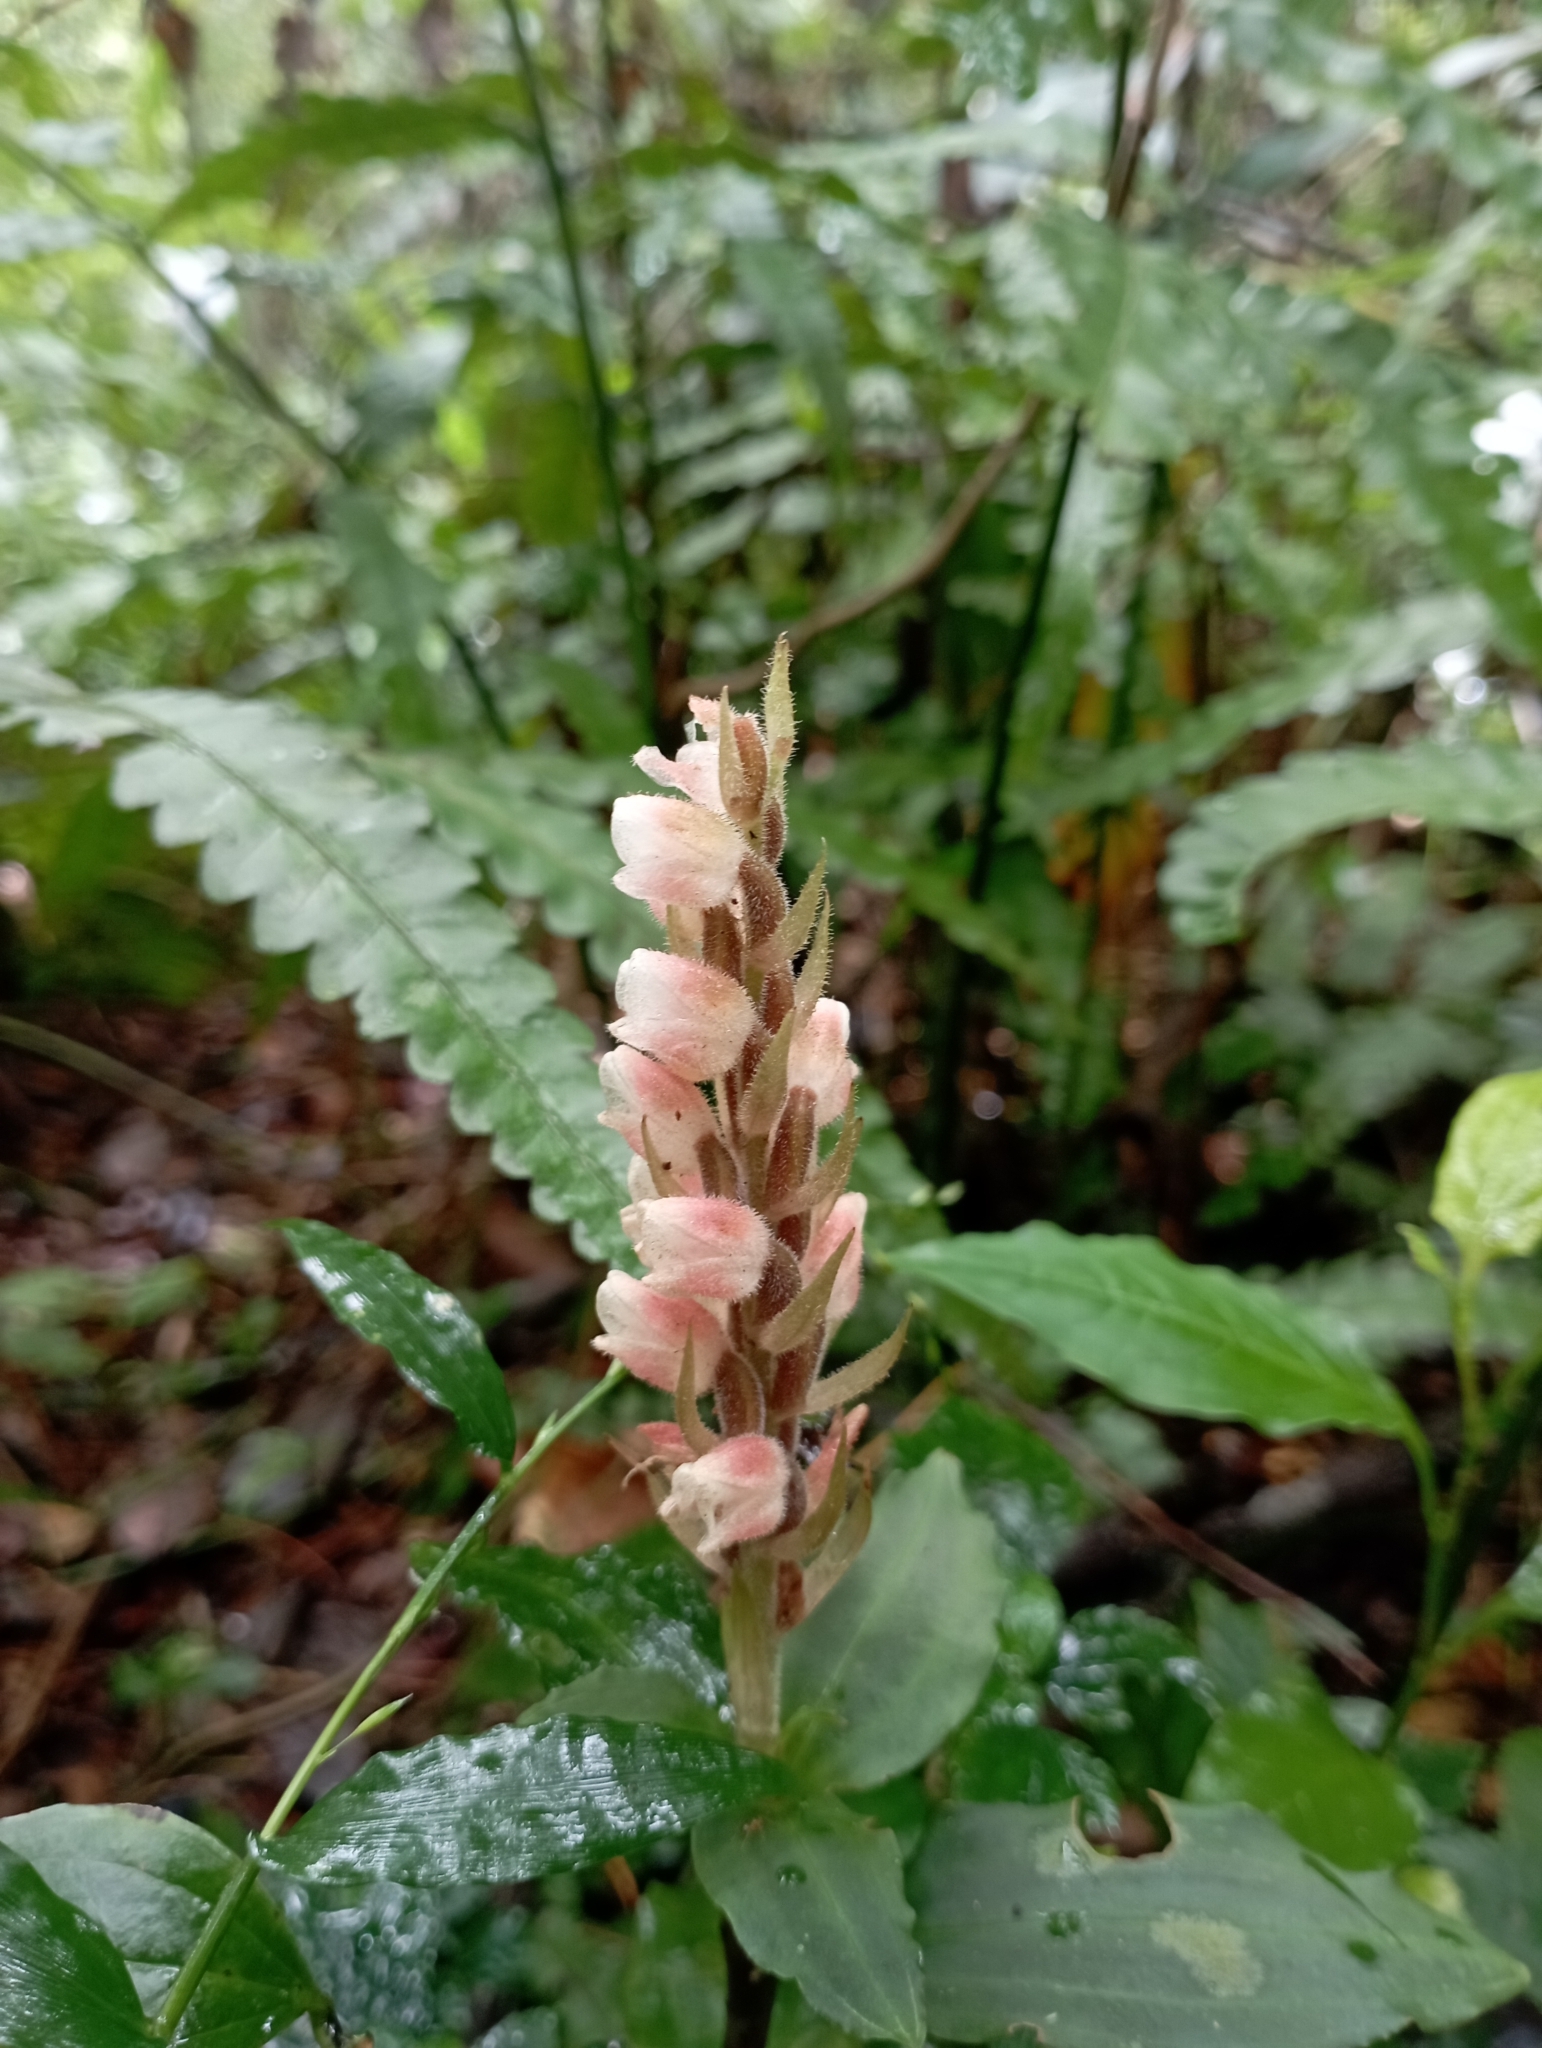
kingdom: Plantae
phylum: Tracheophyta
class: Liliopsida
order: Asparagales
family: Orchidaceae
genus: Goodyera
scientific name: Goodyera foliosa
